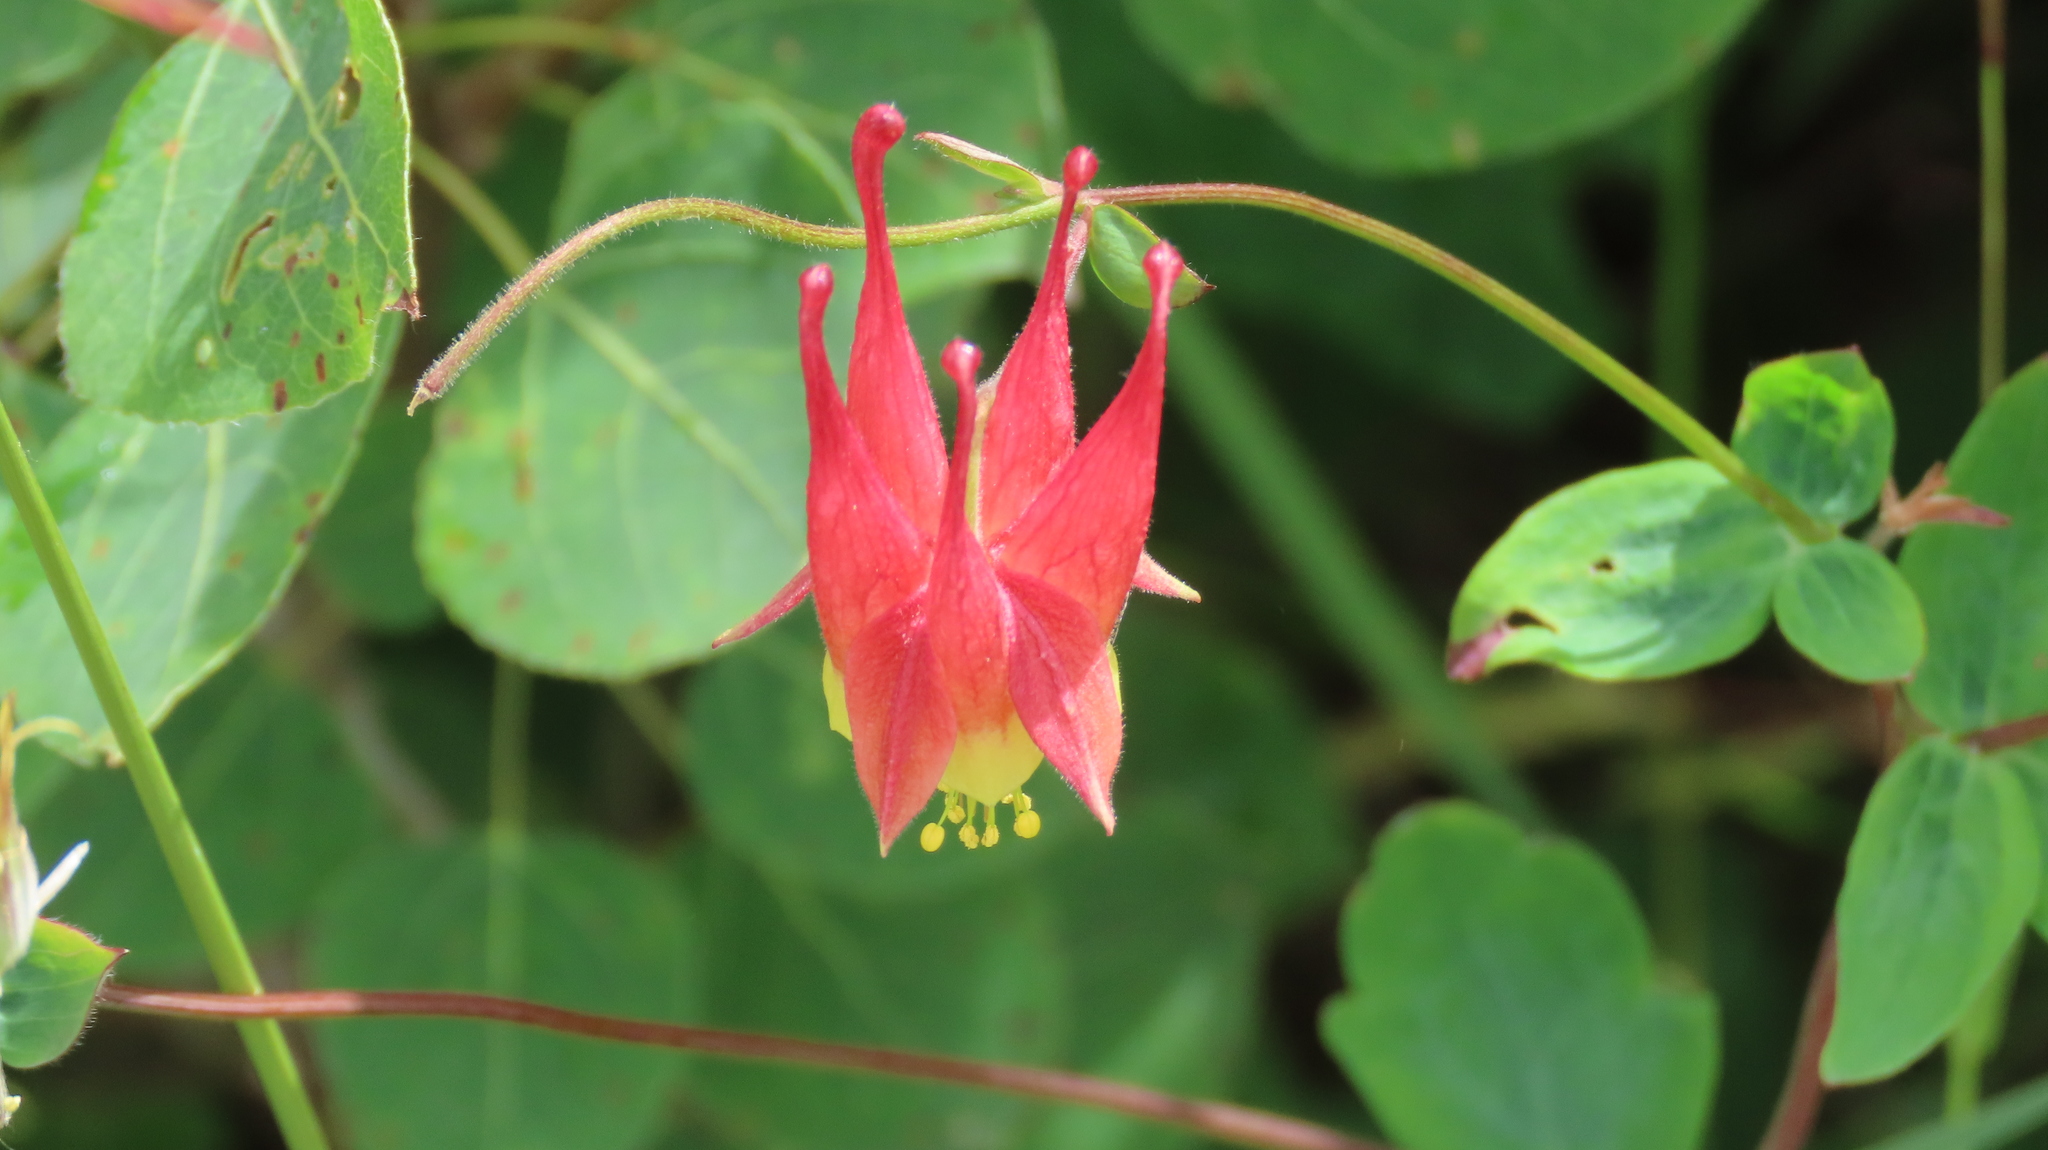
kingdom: Plantae
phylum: Tracheophyta
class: Magnoliopsida
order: Ranunculales
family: Ranunculaceae
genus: Aquilegia
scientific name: Aquilegia canadensis
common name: American columbine
